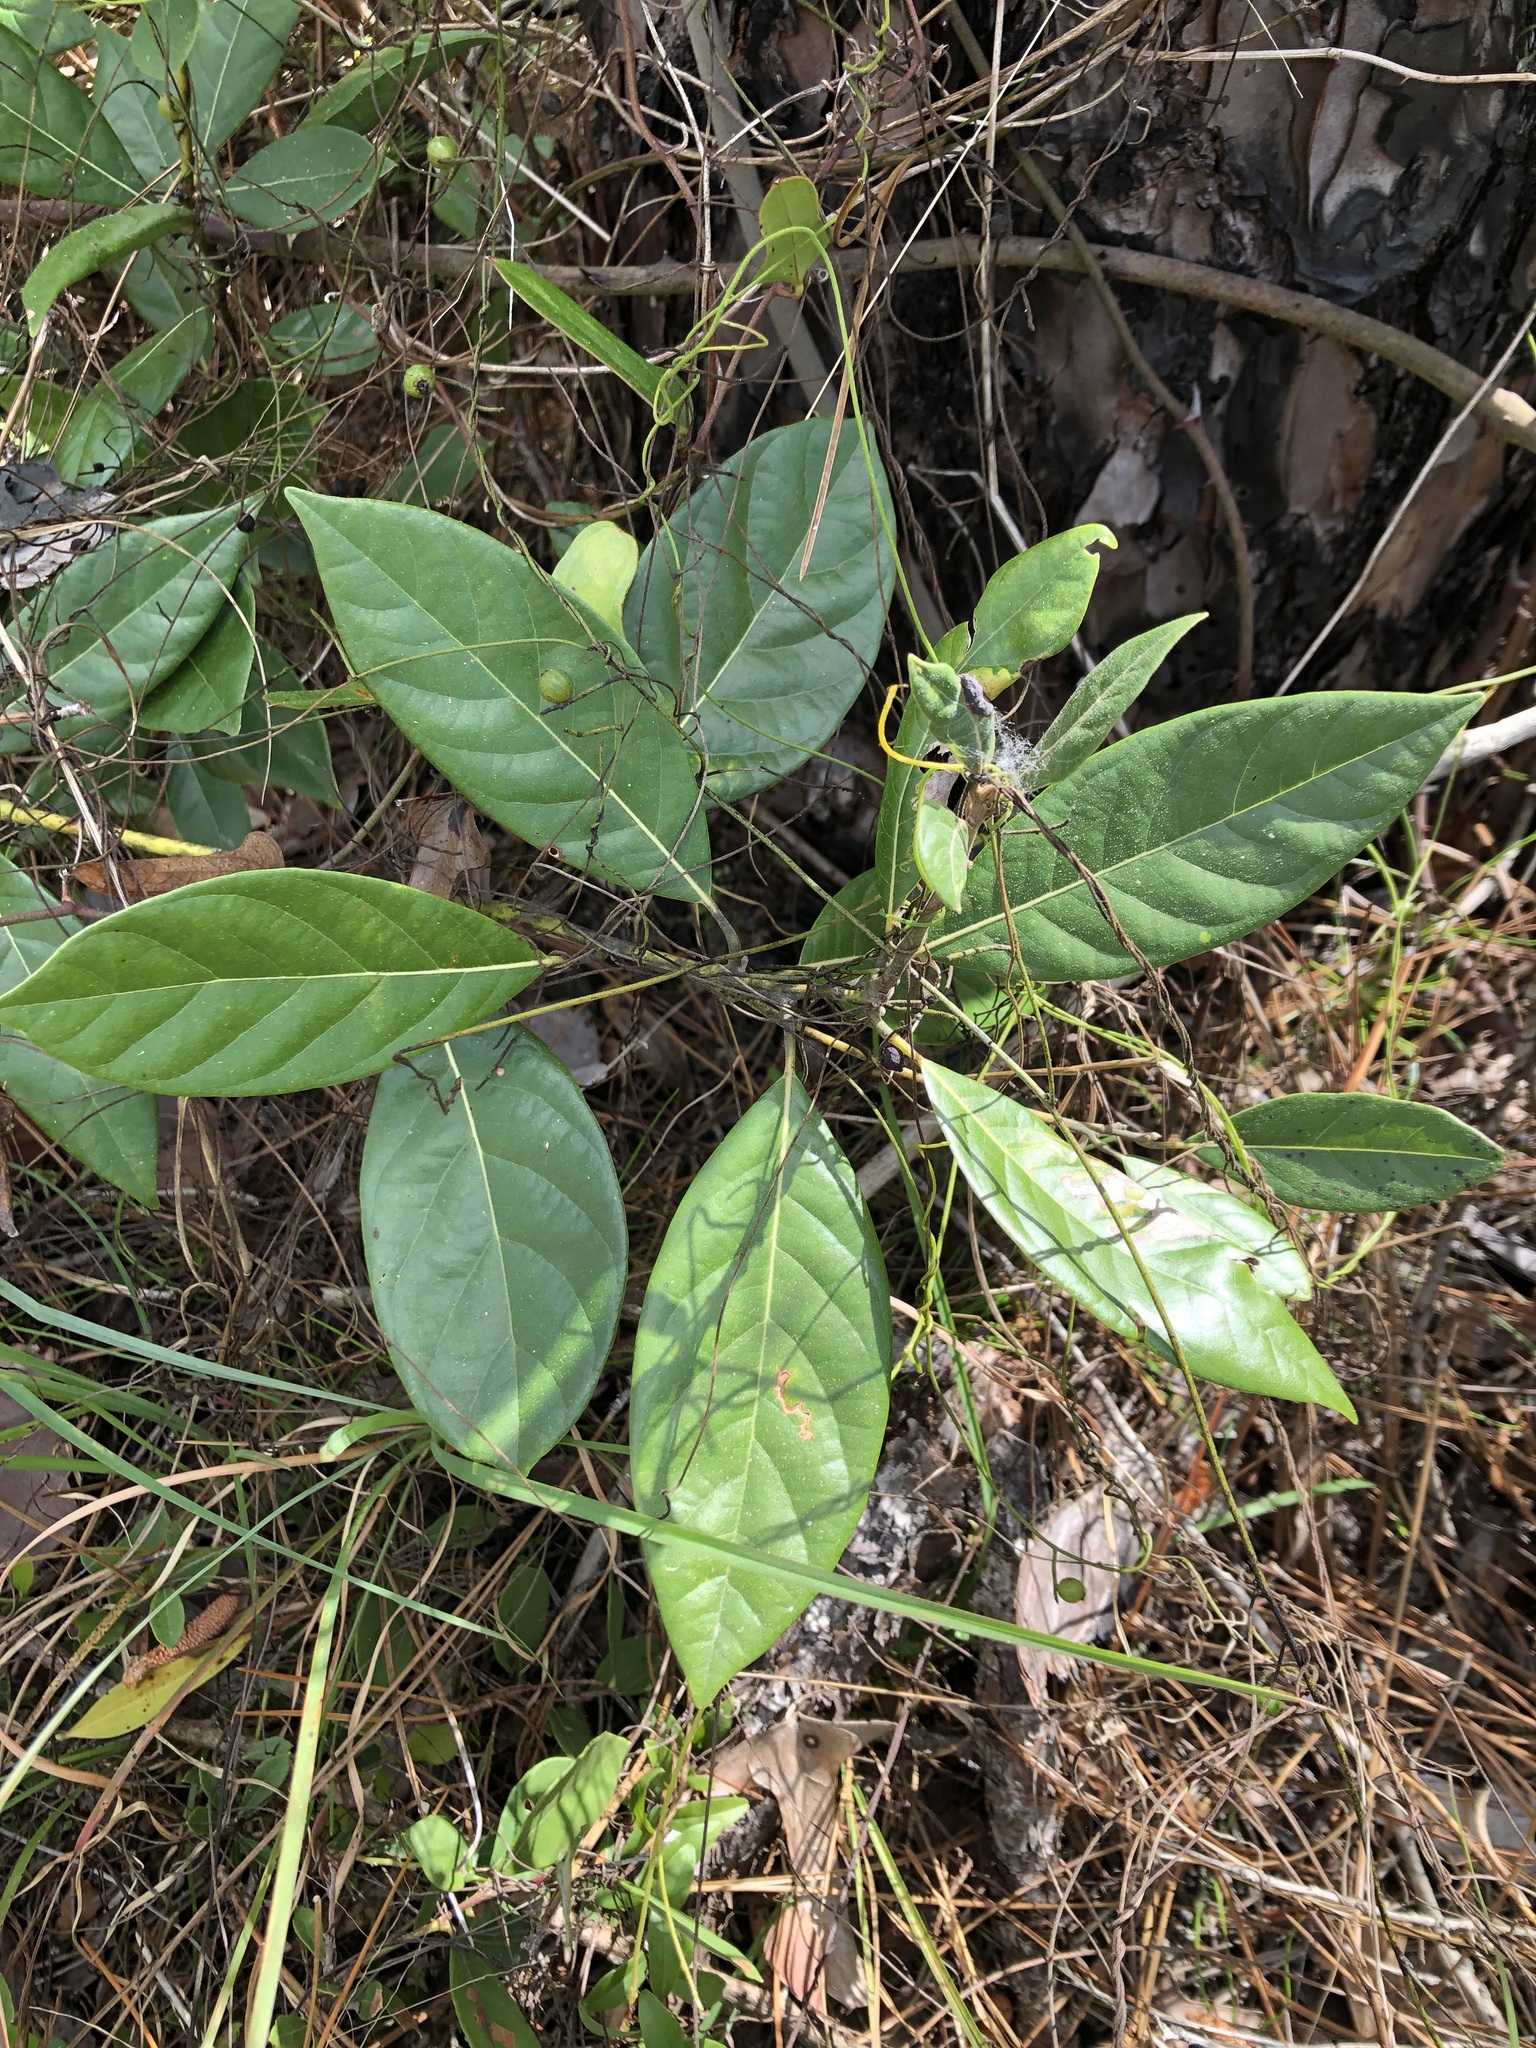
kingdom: Plantae
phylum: Tracheophyta
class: Magnoliopsida
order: Laurales
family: Lauraceae
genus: Persea
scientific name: Persea palustris
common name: Swampbay
